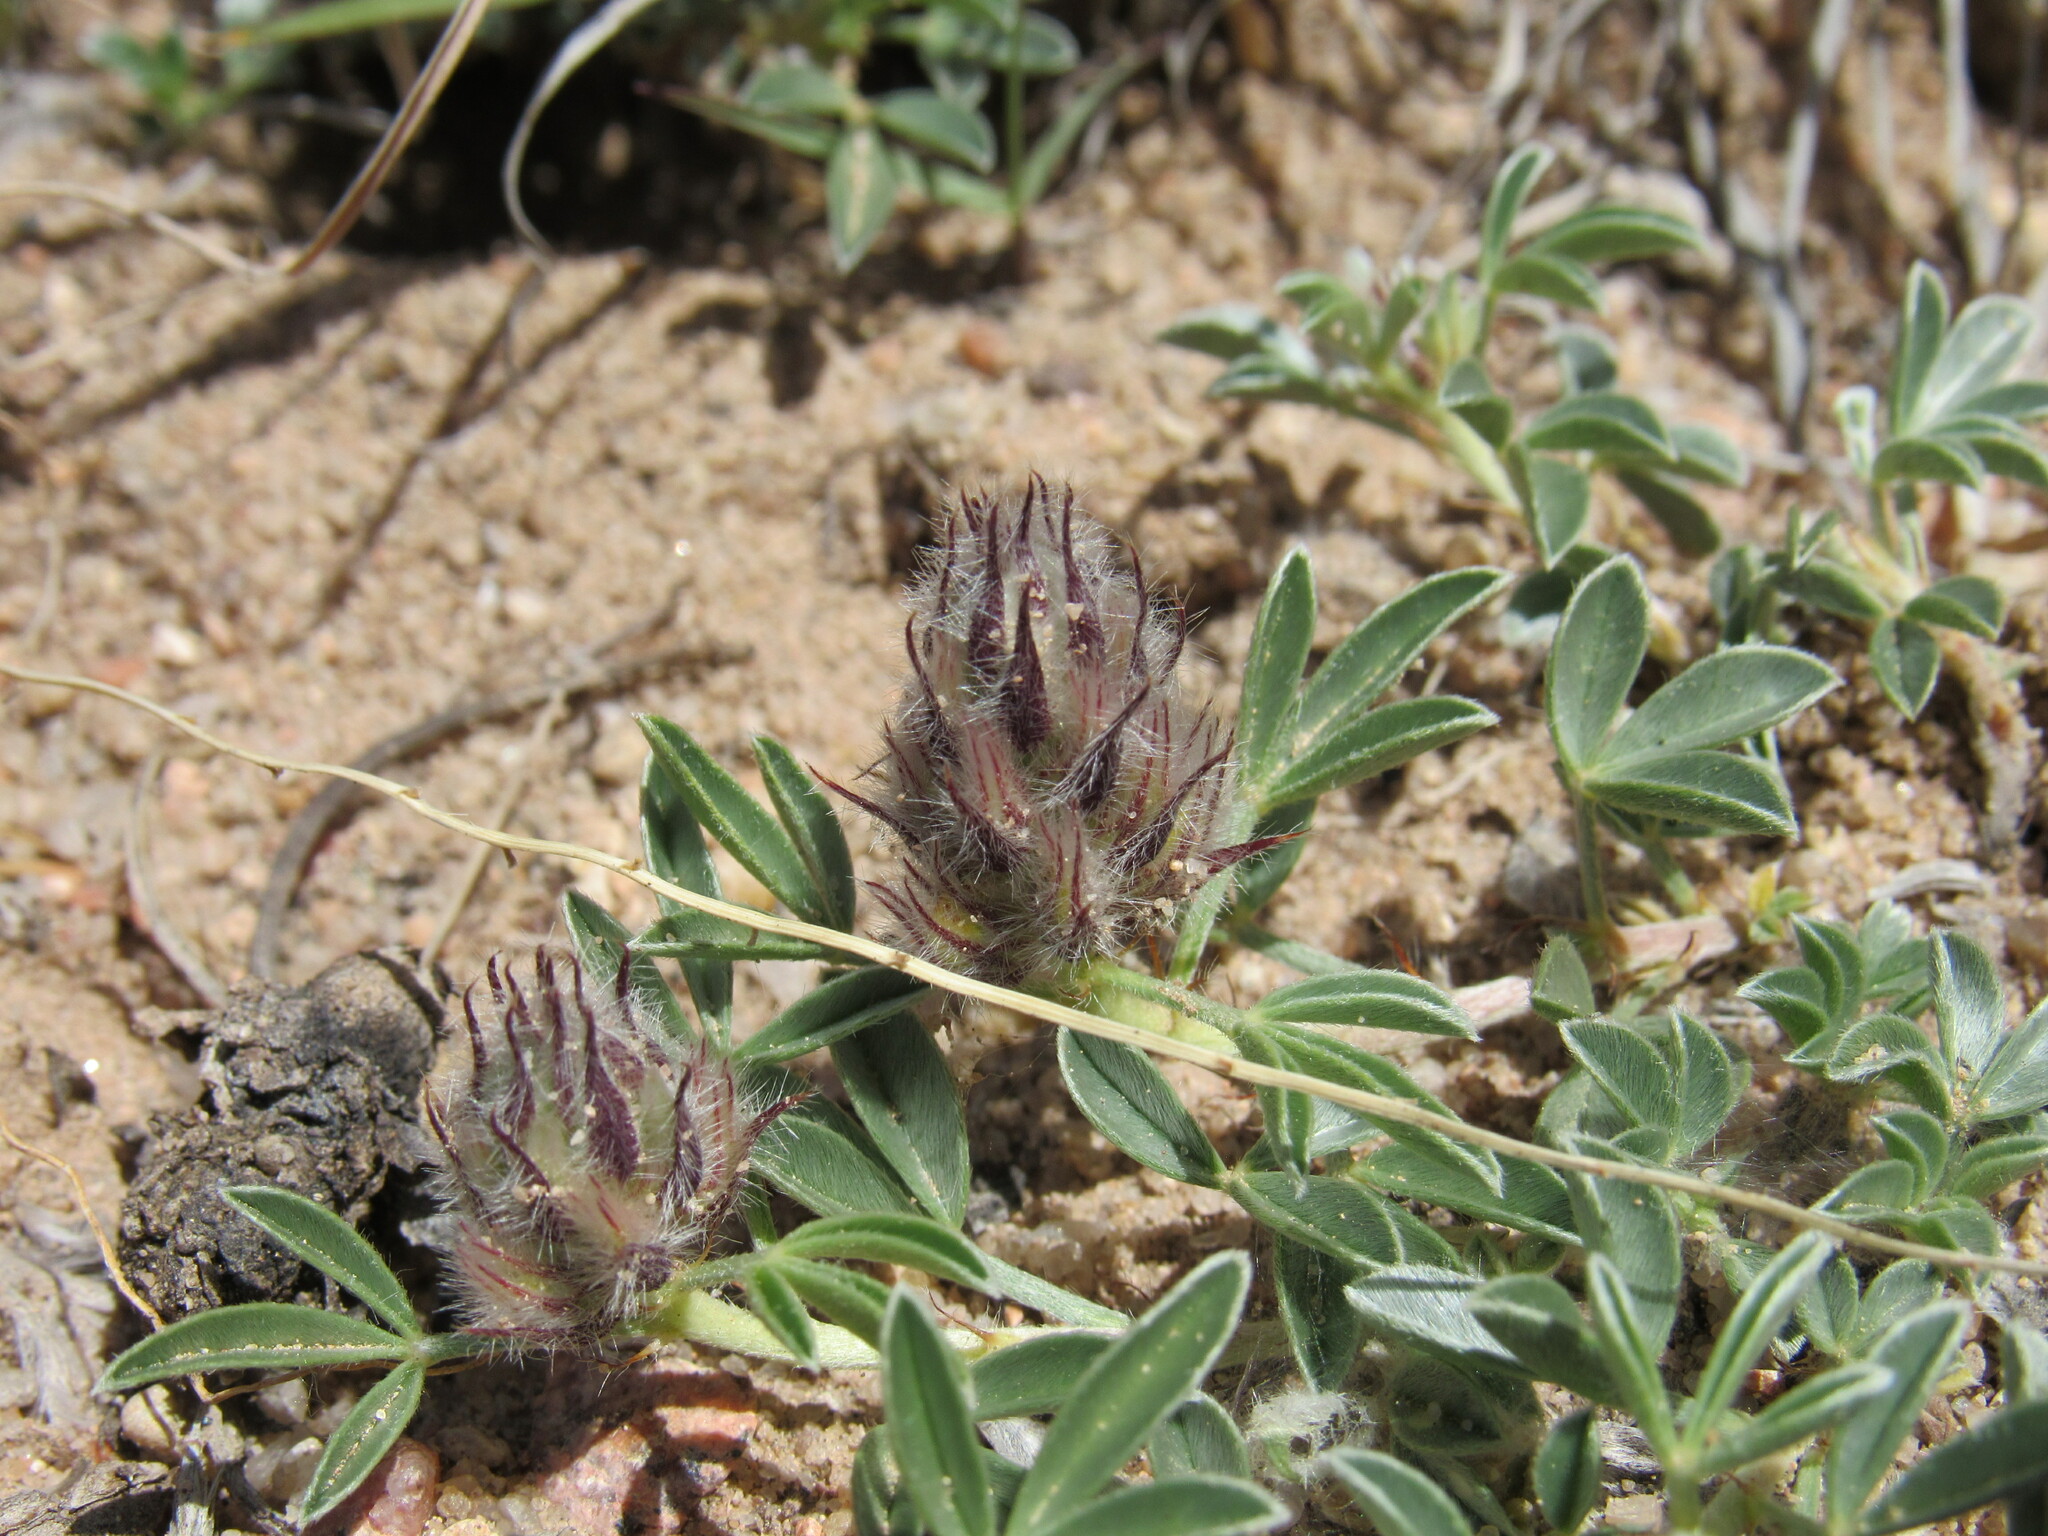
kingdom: Plantae
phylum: Tracheophyta
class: Magnoliopsida
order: Fabales
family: Fabaceae
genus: Dalea
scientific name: Dalea jamesii
